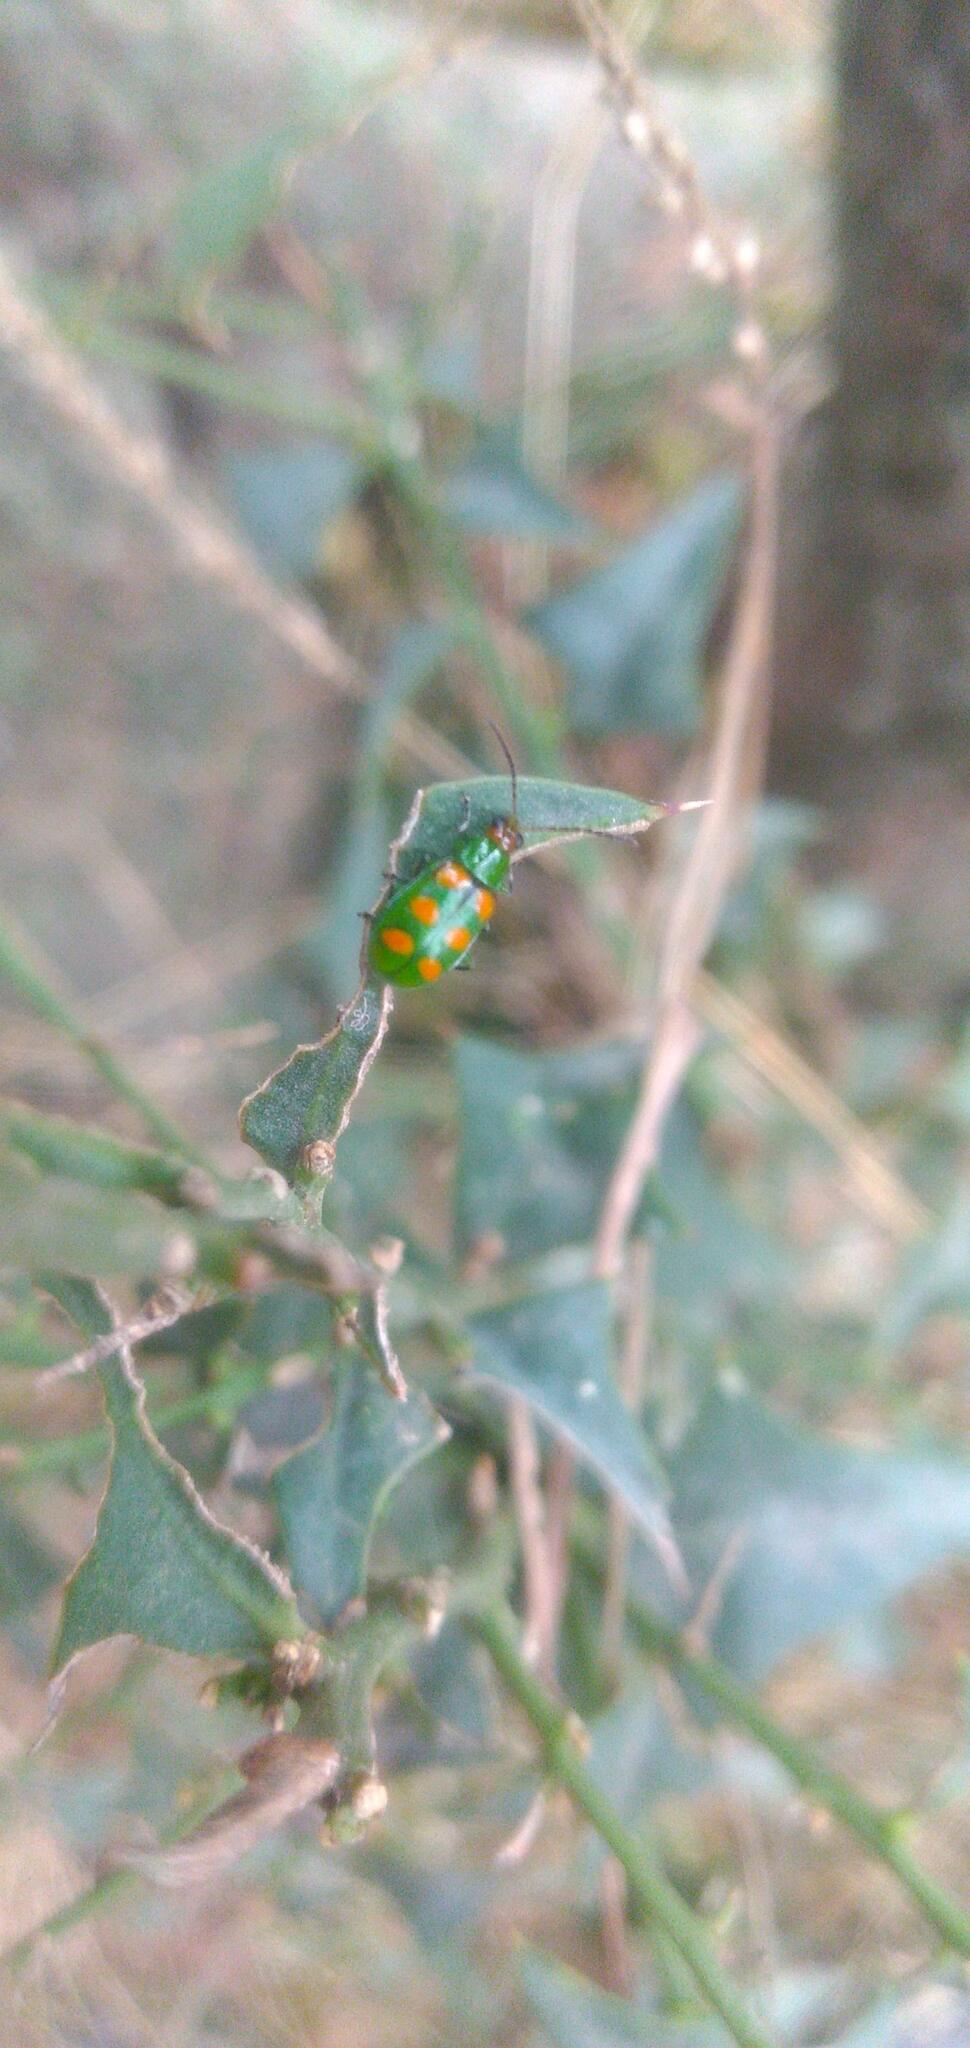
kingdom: Animalia
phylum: Arthropoda
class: Insecta
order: Coleoptera
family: Chrysomelidae
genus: Diabrotica
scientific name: Diabrotica speciosa
